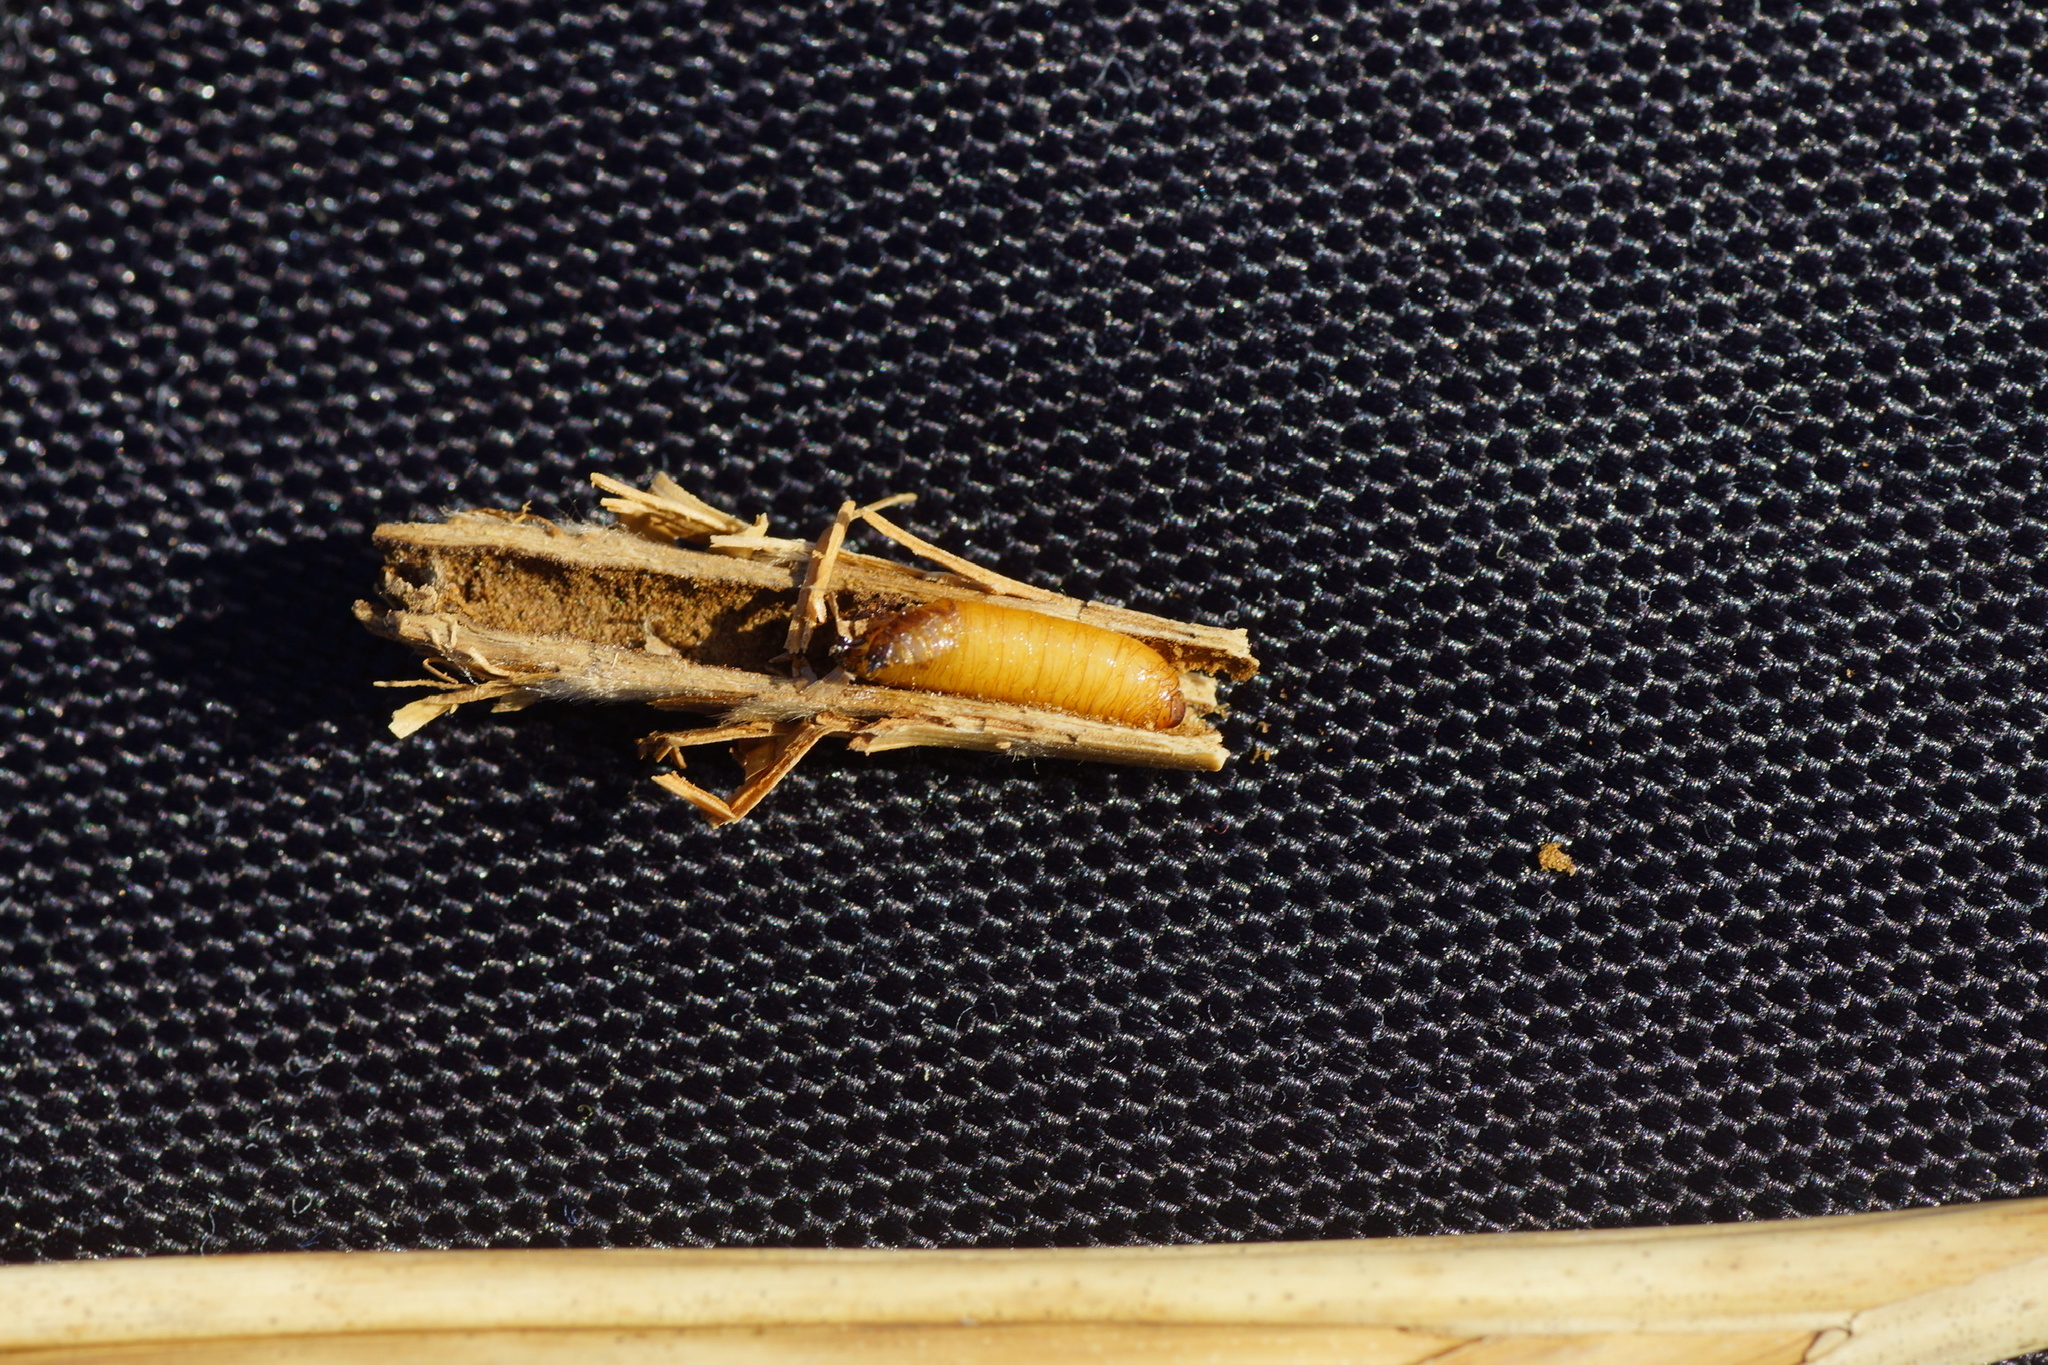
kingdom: Animalia
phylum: Arthropoda
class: Insecta
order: Diptera
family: Chloropidae
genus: Lipara
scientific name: Lipara lucens
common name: Frit fly
